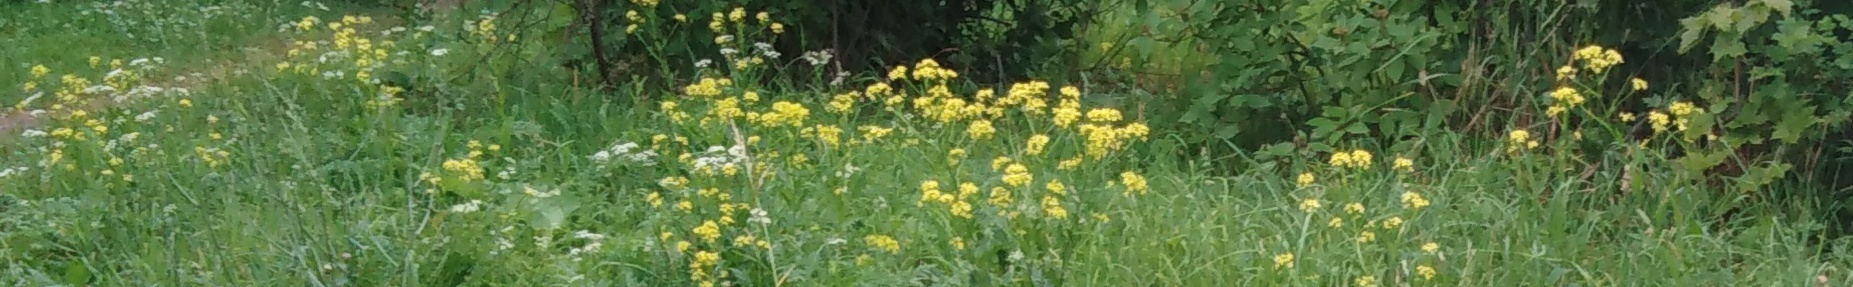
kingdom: Plantae
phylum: Tracheophyta
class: Magnoliopsida
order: Brassicales
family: Brassicaceae
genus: Bunias
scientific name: Bunias orientalis
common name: Warty-cabbage
